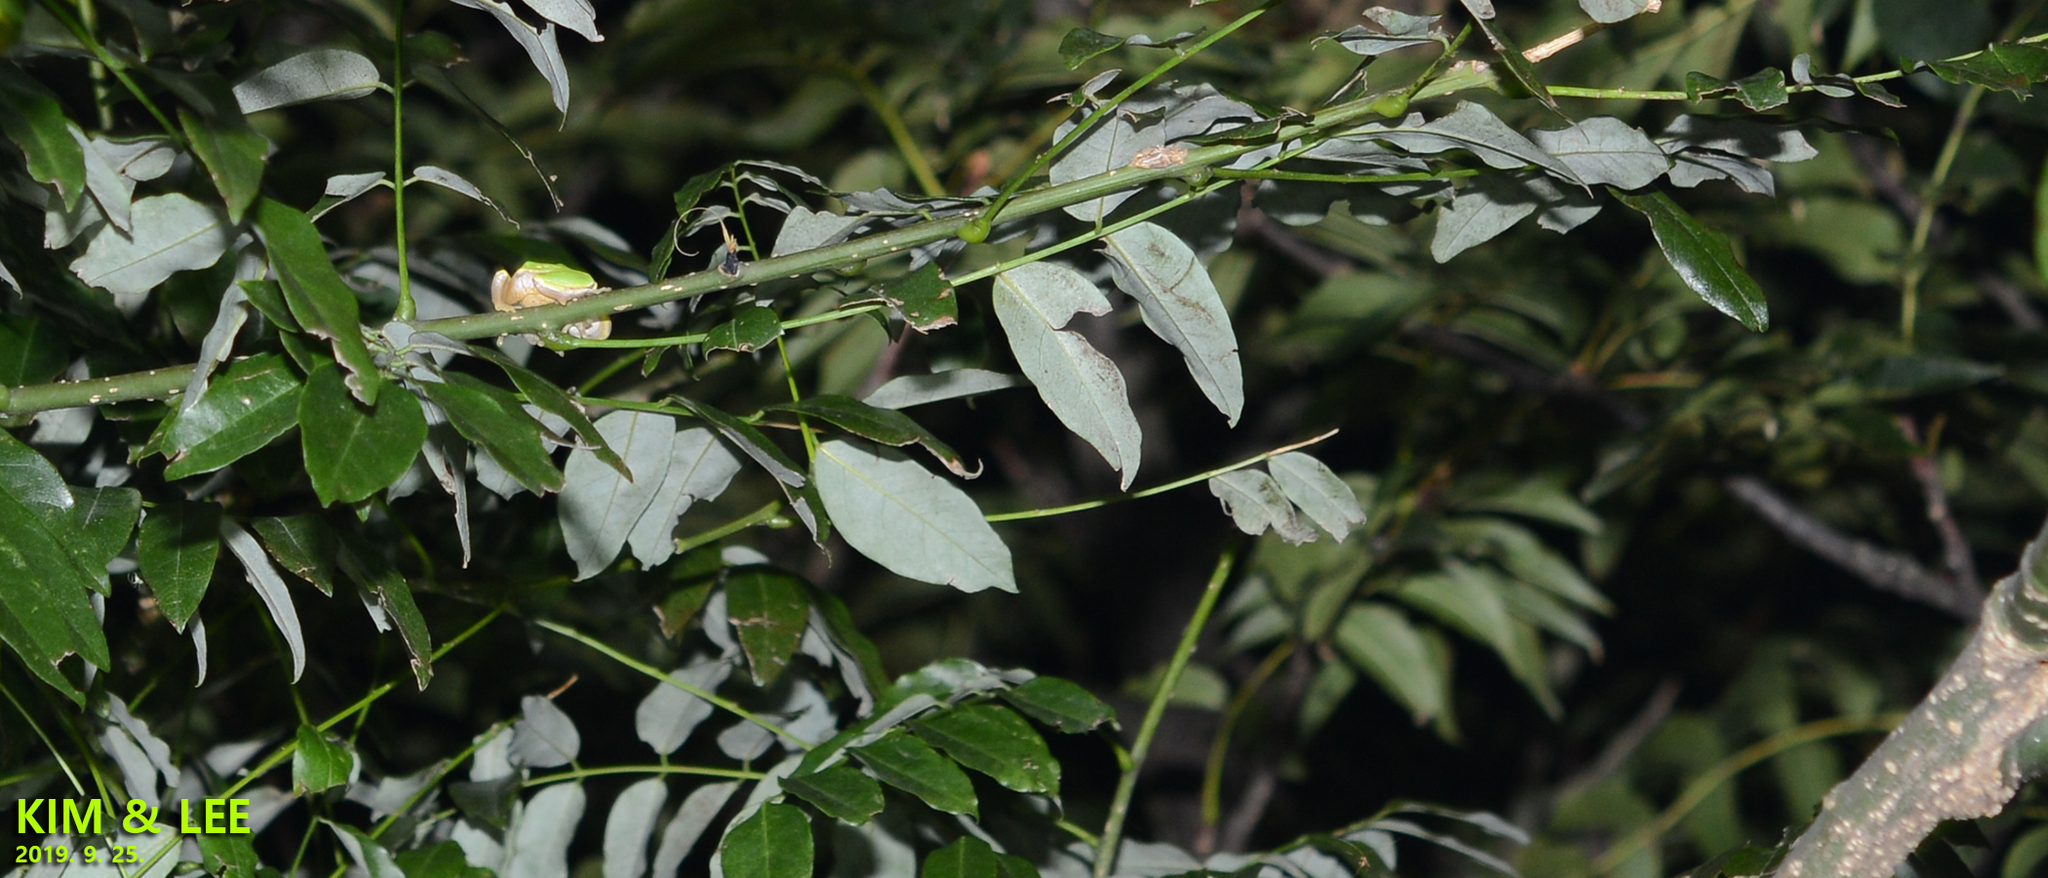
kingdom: Animalia
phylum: Chordata
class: Amphibia
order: Anura
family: Hylidae
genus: Dryophytes
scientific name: Dryophytes japonicus
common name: Japanese treefrog
